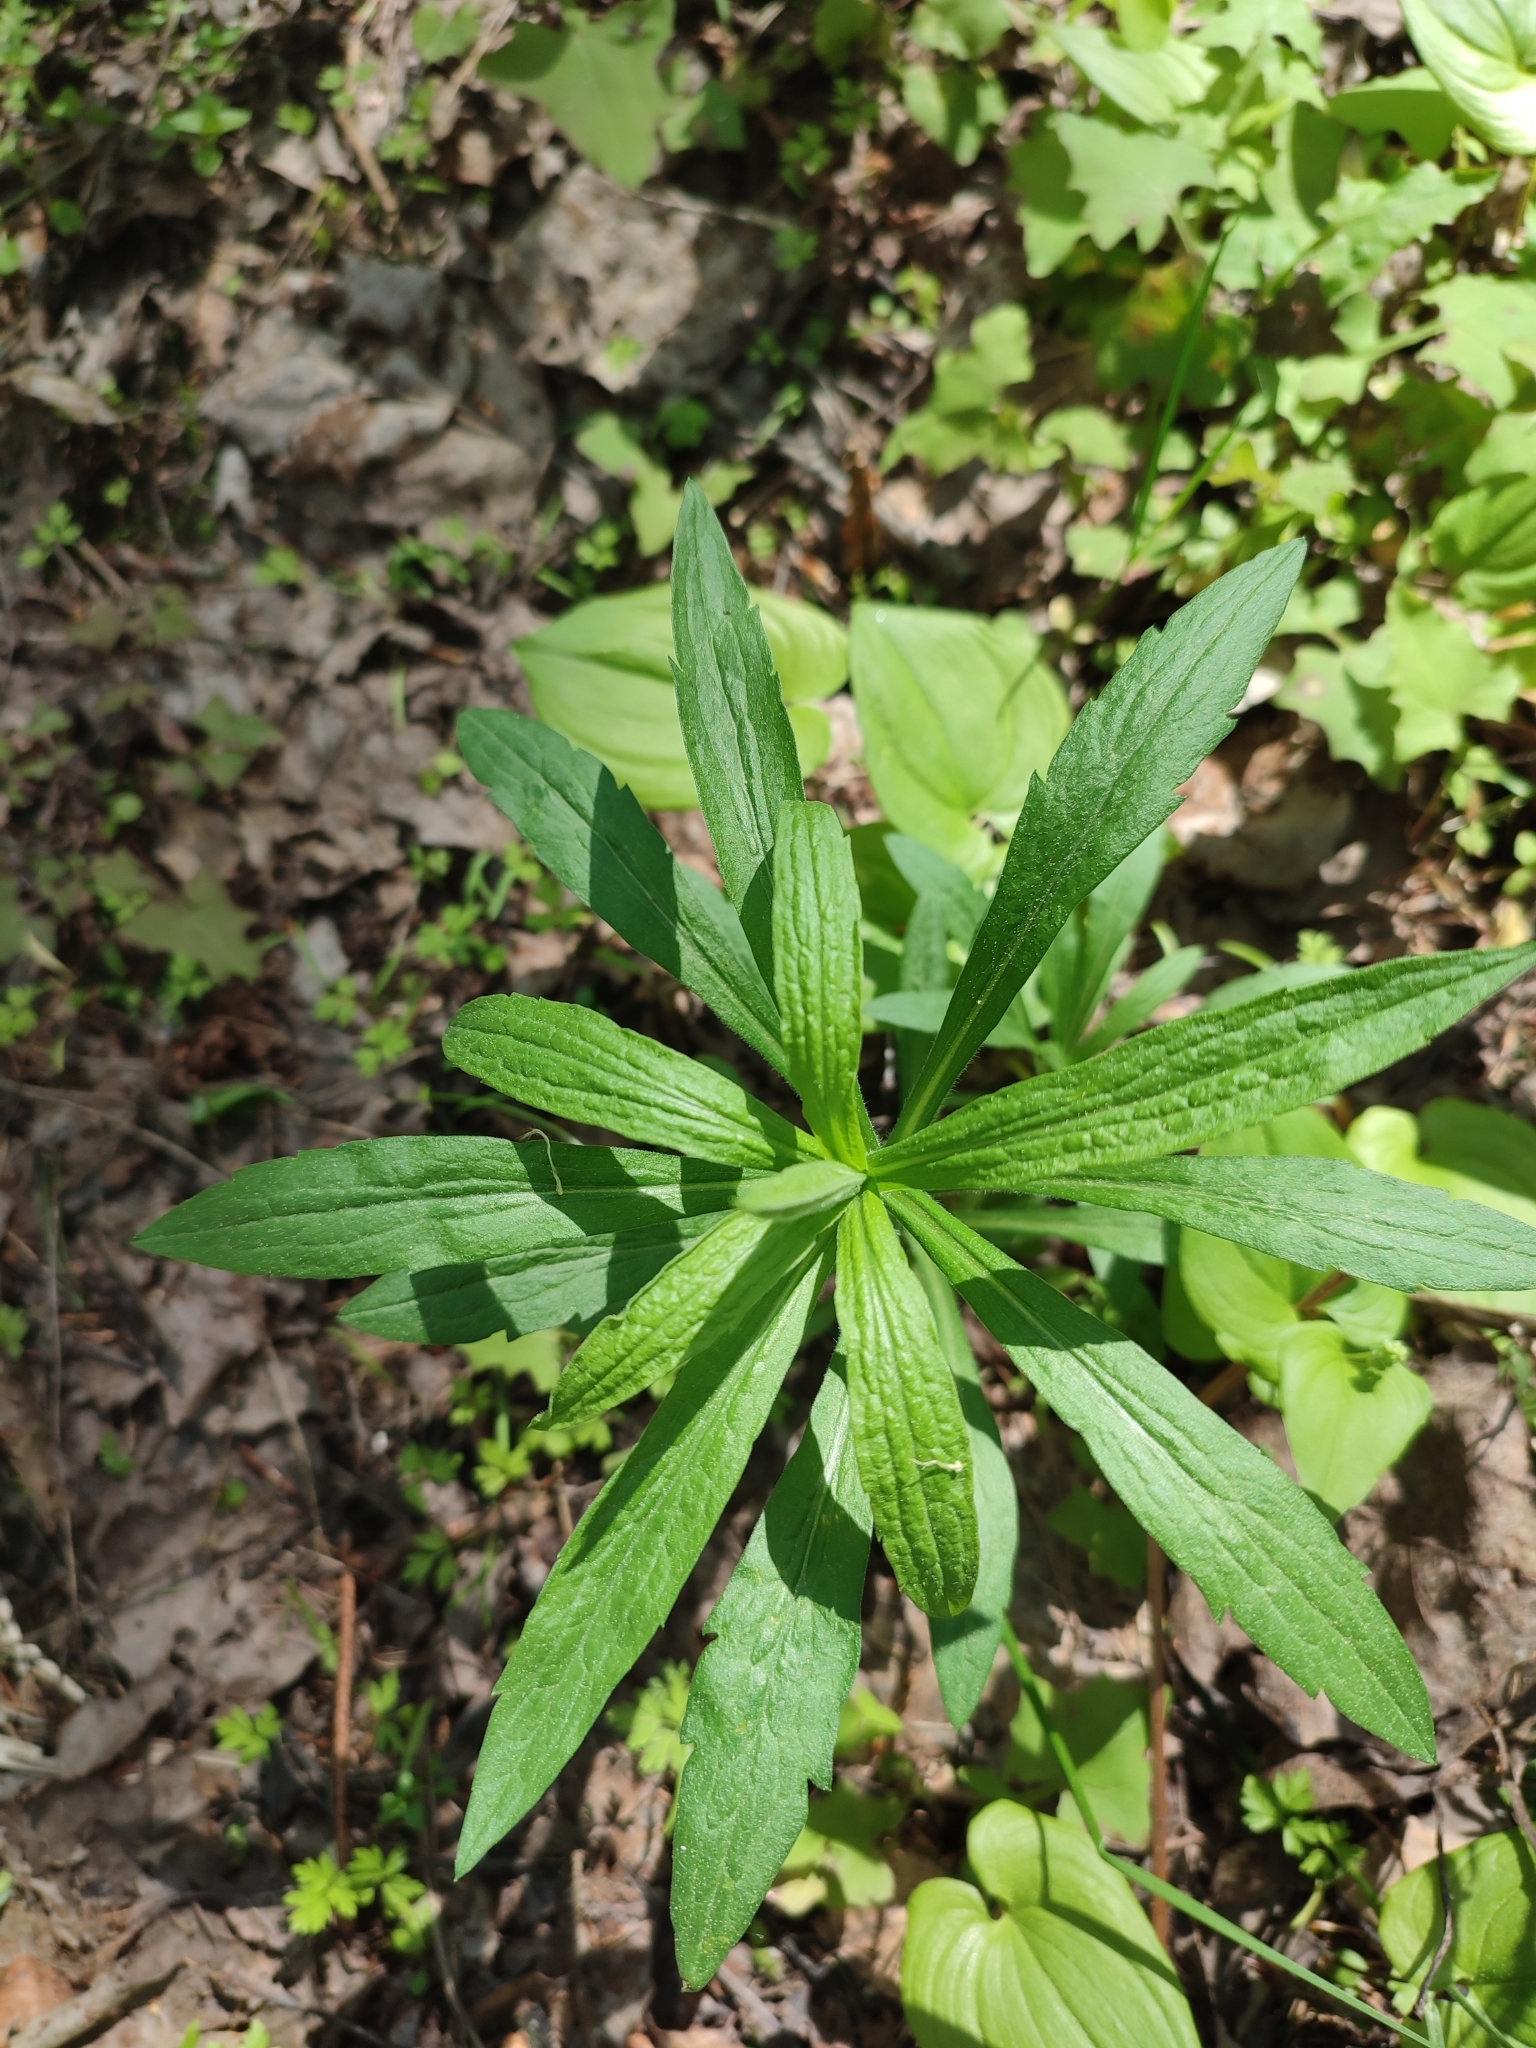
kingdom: Plantae
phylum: Tracheophyta
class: Magnoliopsida
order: Asterales
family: Asteraceae
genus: Solidago
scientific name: Solidago canadensis
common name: Canada goldenrod
